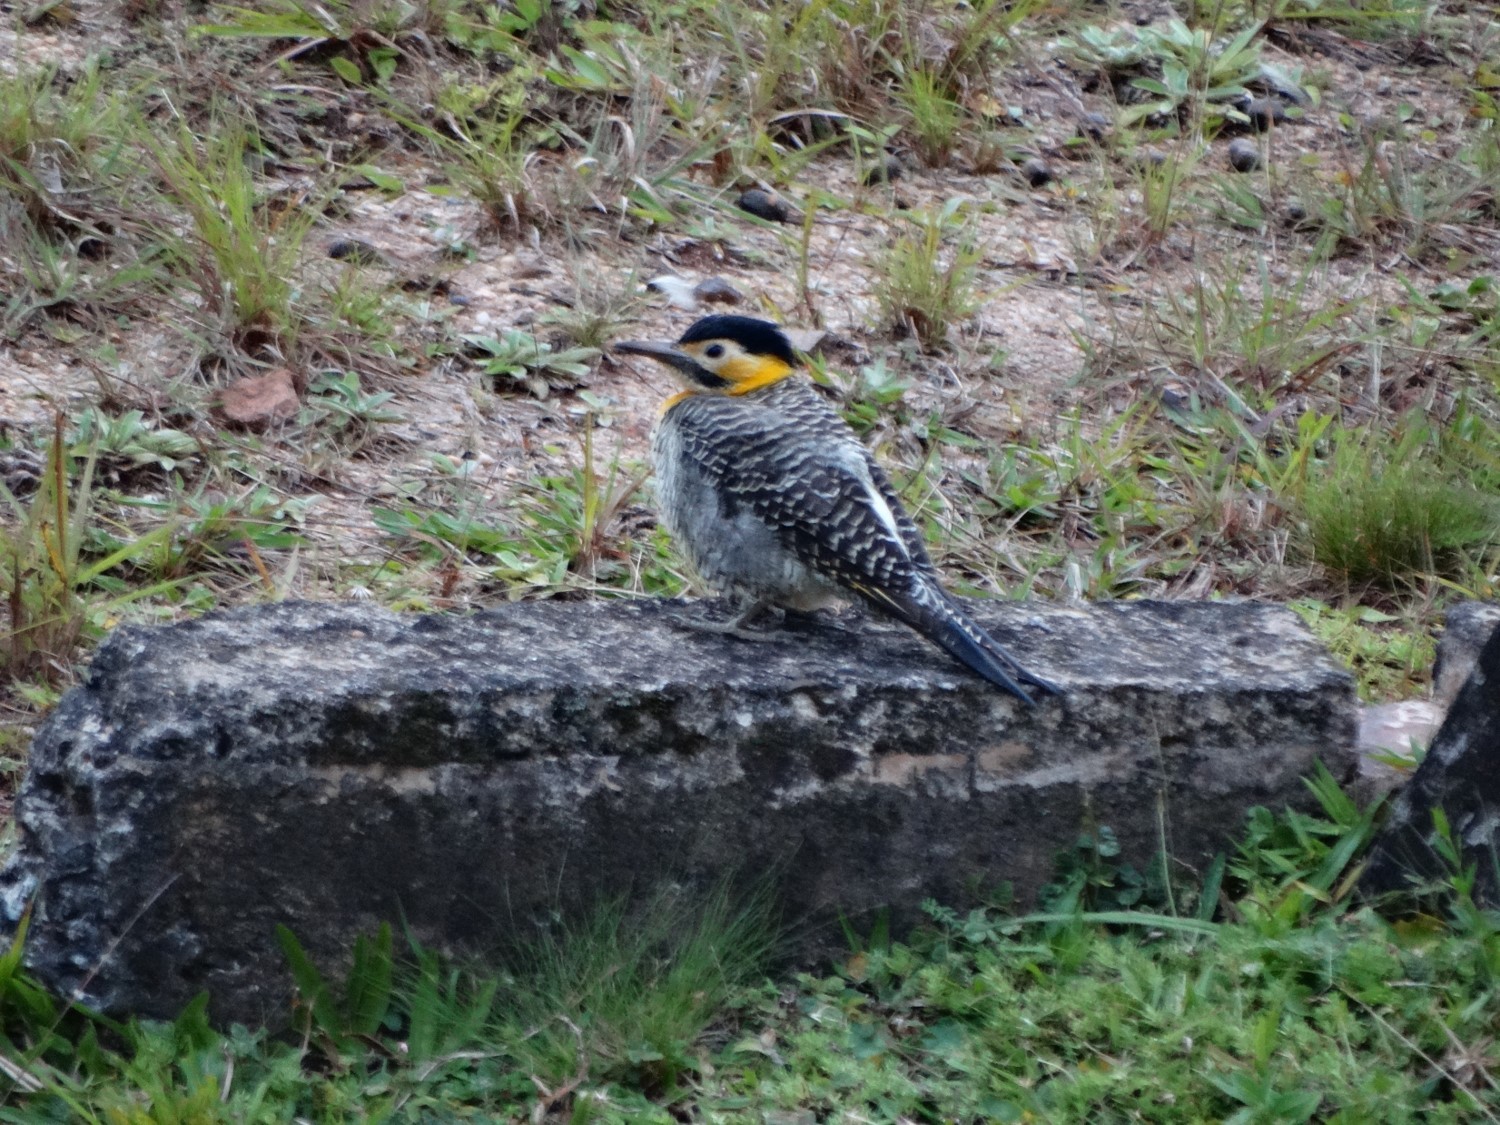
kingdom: Animalia
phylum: Chordata
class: Aves
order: Piciformes
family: Picidae
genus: Colaptes
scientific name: Colaptes campestris
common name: Campo flicker
